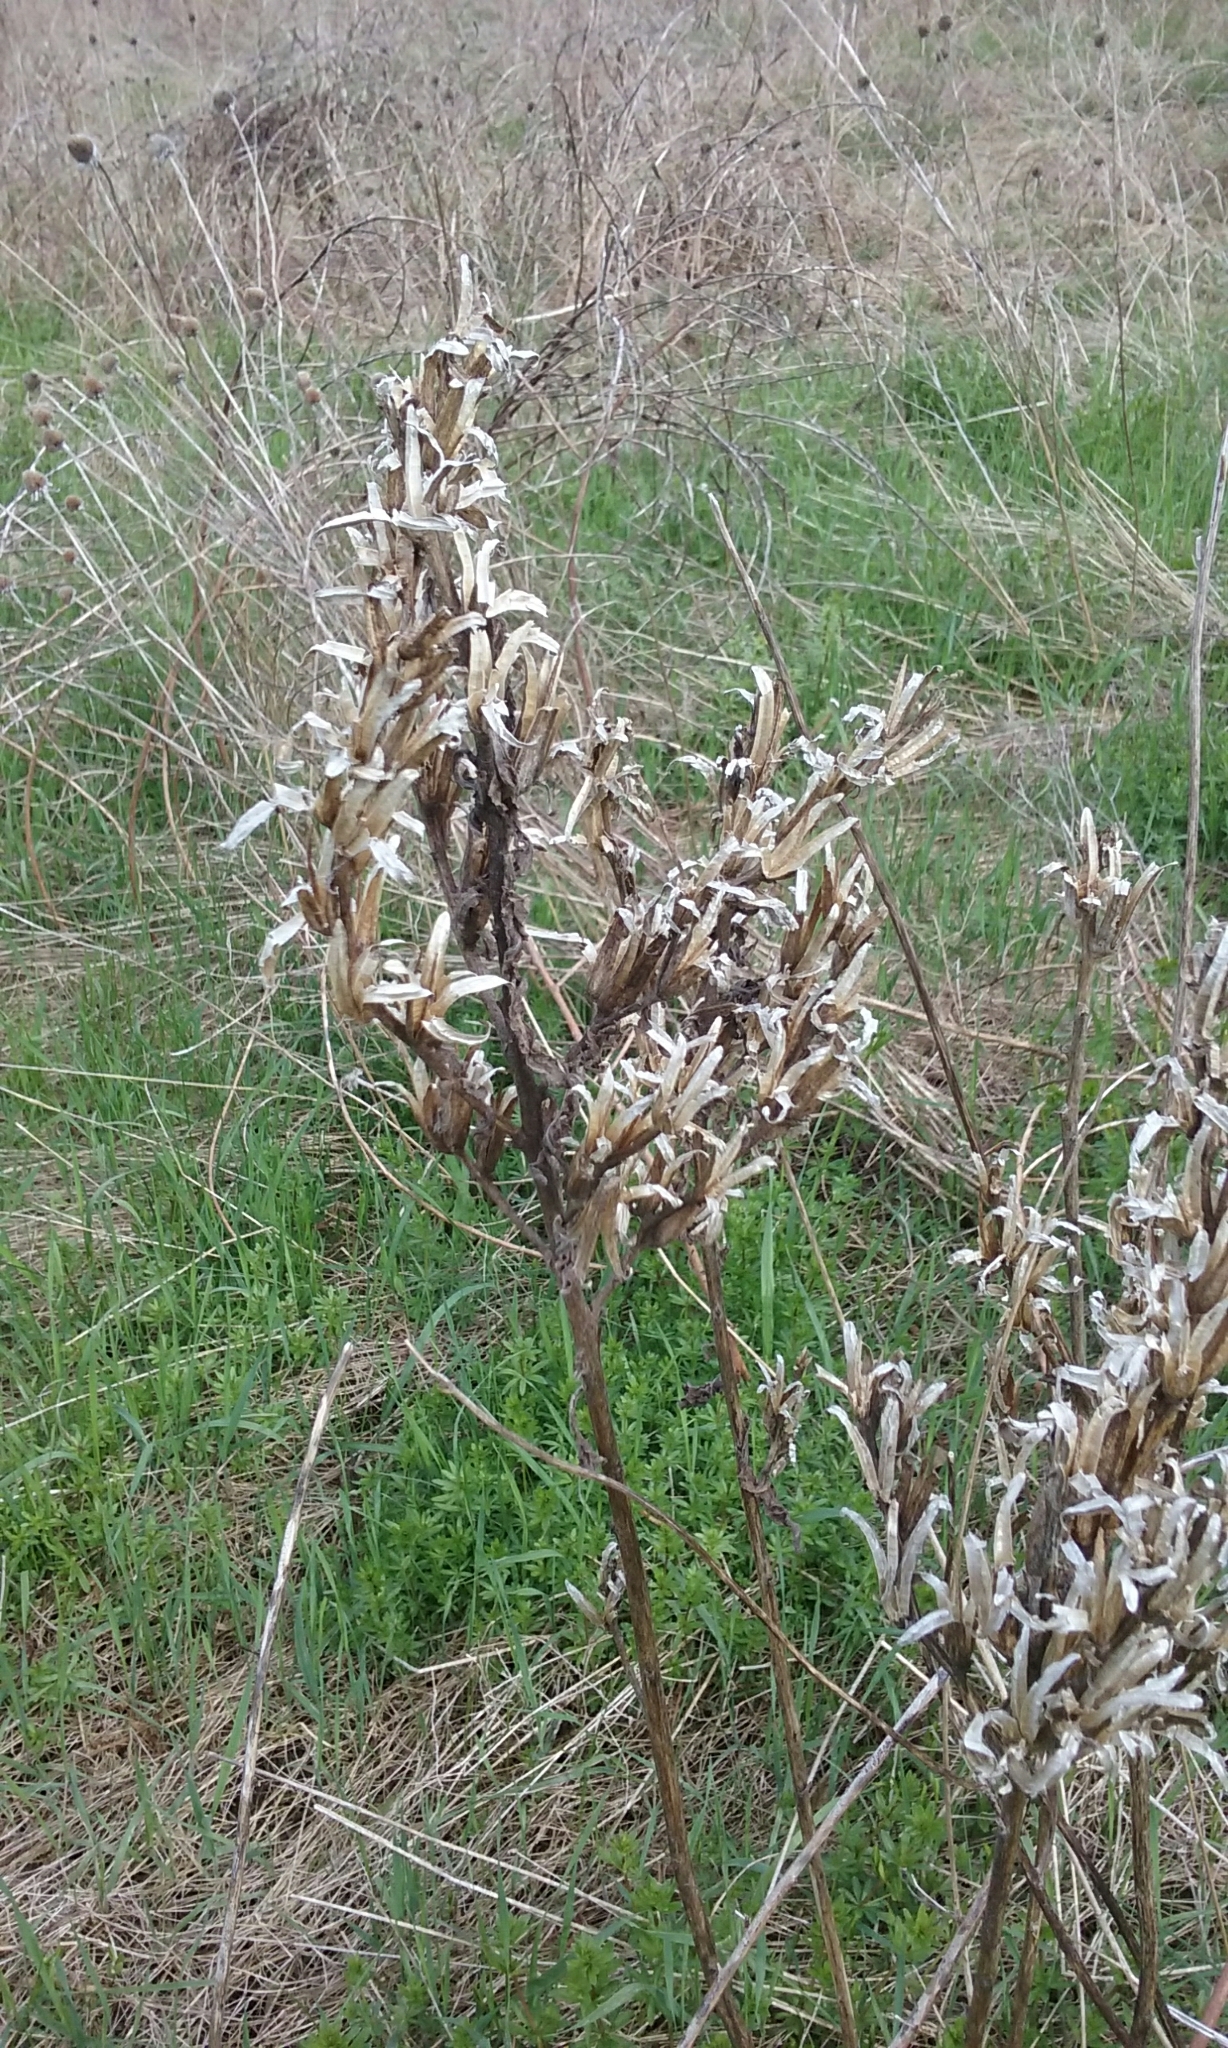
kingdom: Plantae
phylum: Tracheophyta
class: Magnoliopsida
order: Myrtales
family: Onagraceae
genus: Oenothera
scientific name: Oenothera biennis
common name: Common evening-primrose
